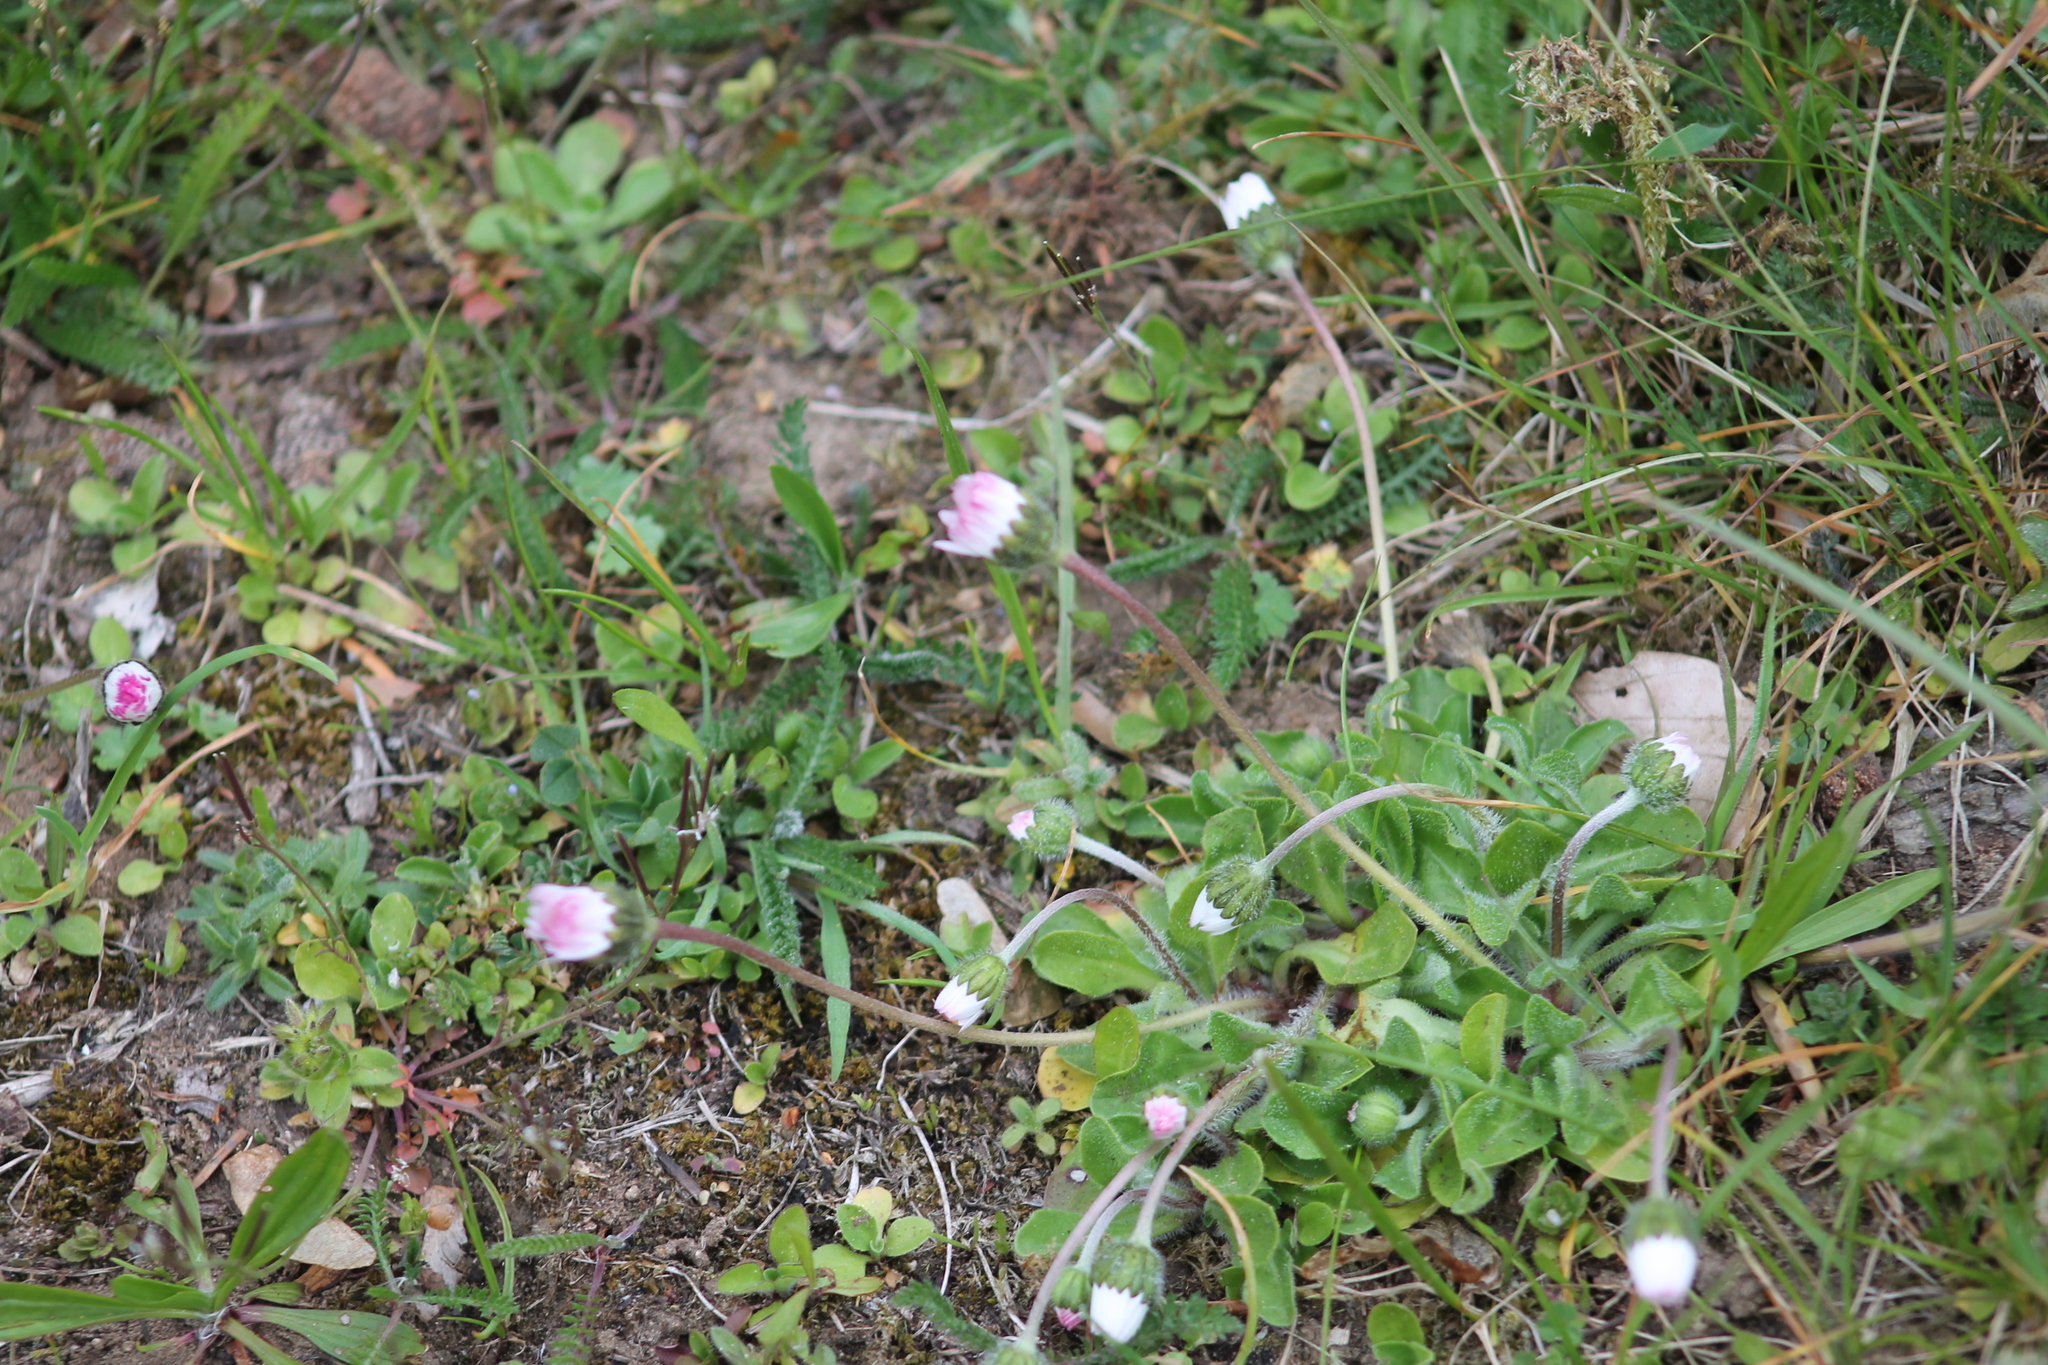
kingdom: Plantae
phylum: Tracheophyta
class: Magnoliopsida
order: Asterales
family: Asteraceae
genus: Bellis
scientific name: Bellis perennis
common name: Lawndaisy
